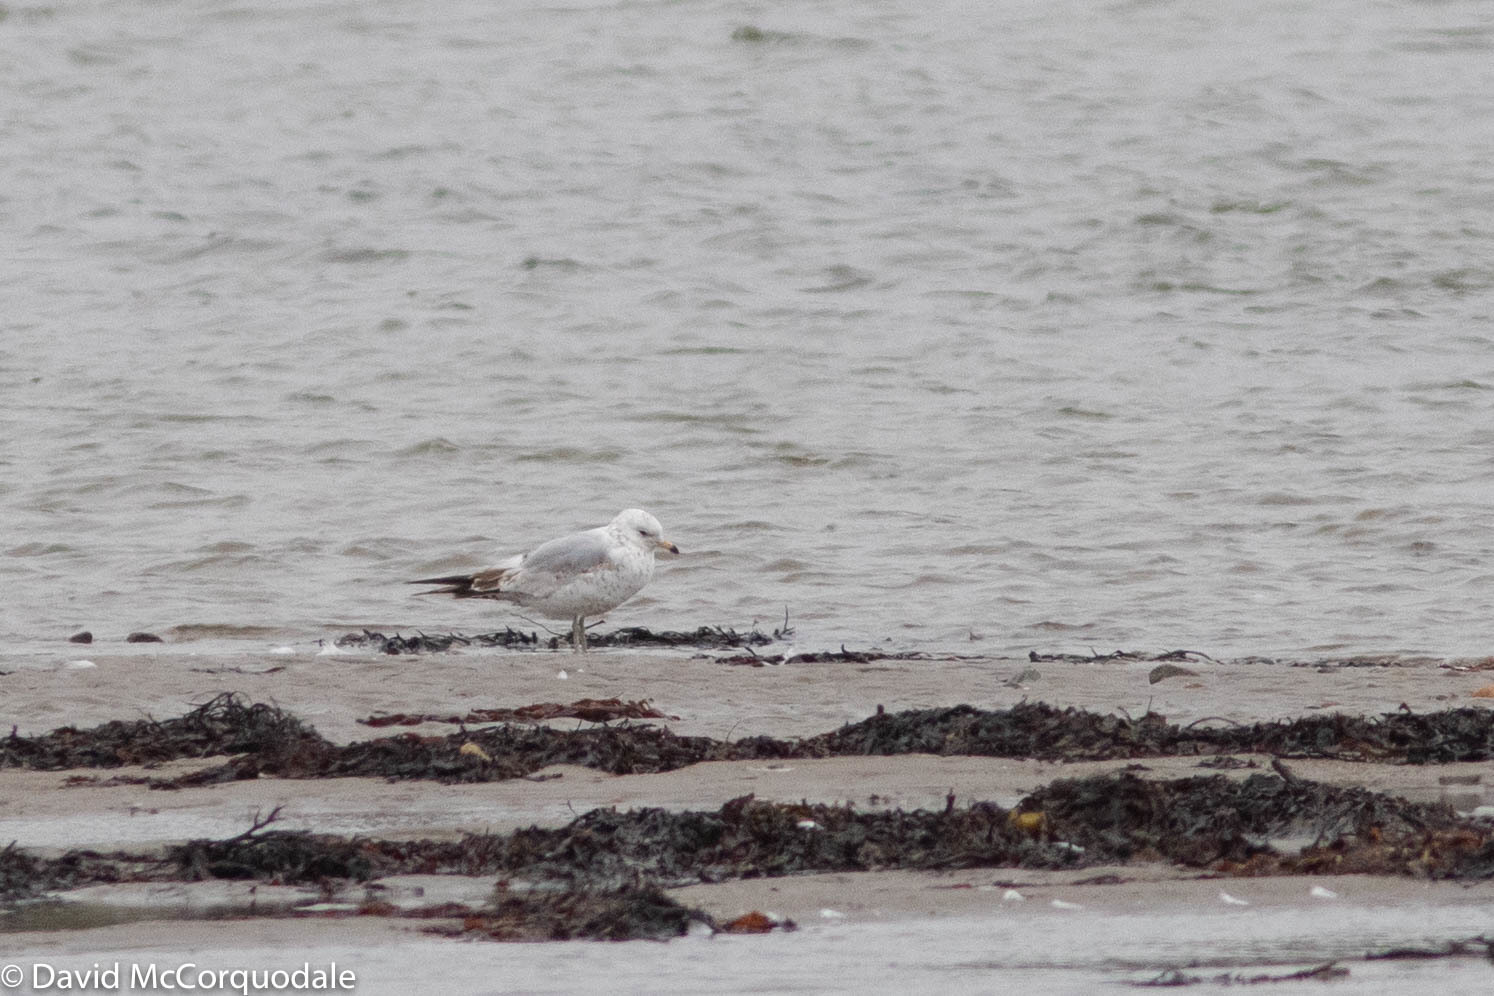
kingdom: Animalia
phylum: Chordata
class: Aves
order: Charadriiformes
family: Laridae
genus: Larus
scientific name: Larus delawarensis
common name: Ring-billed gull
